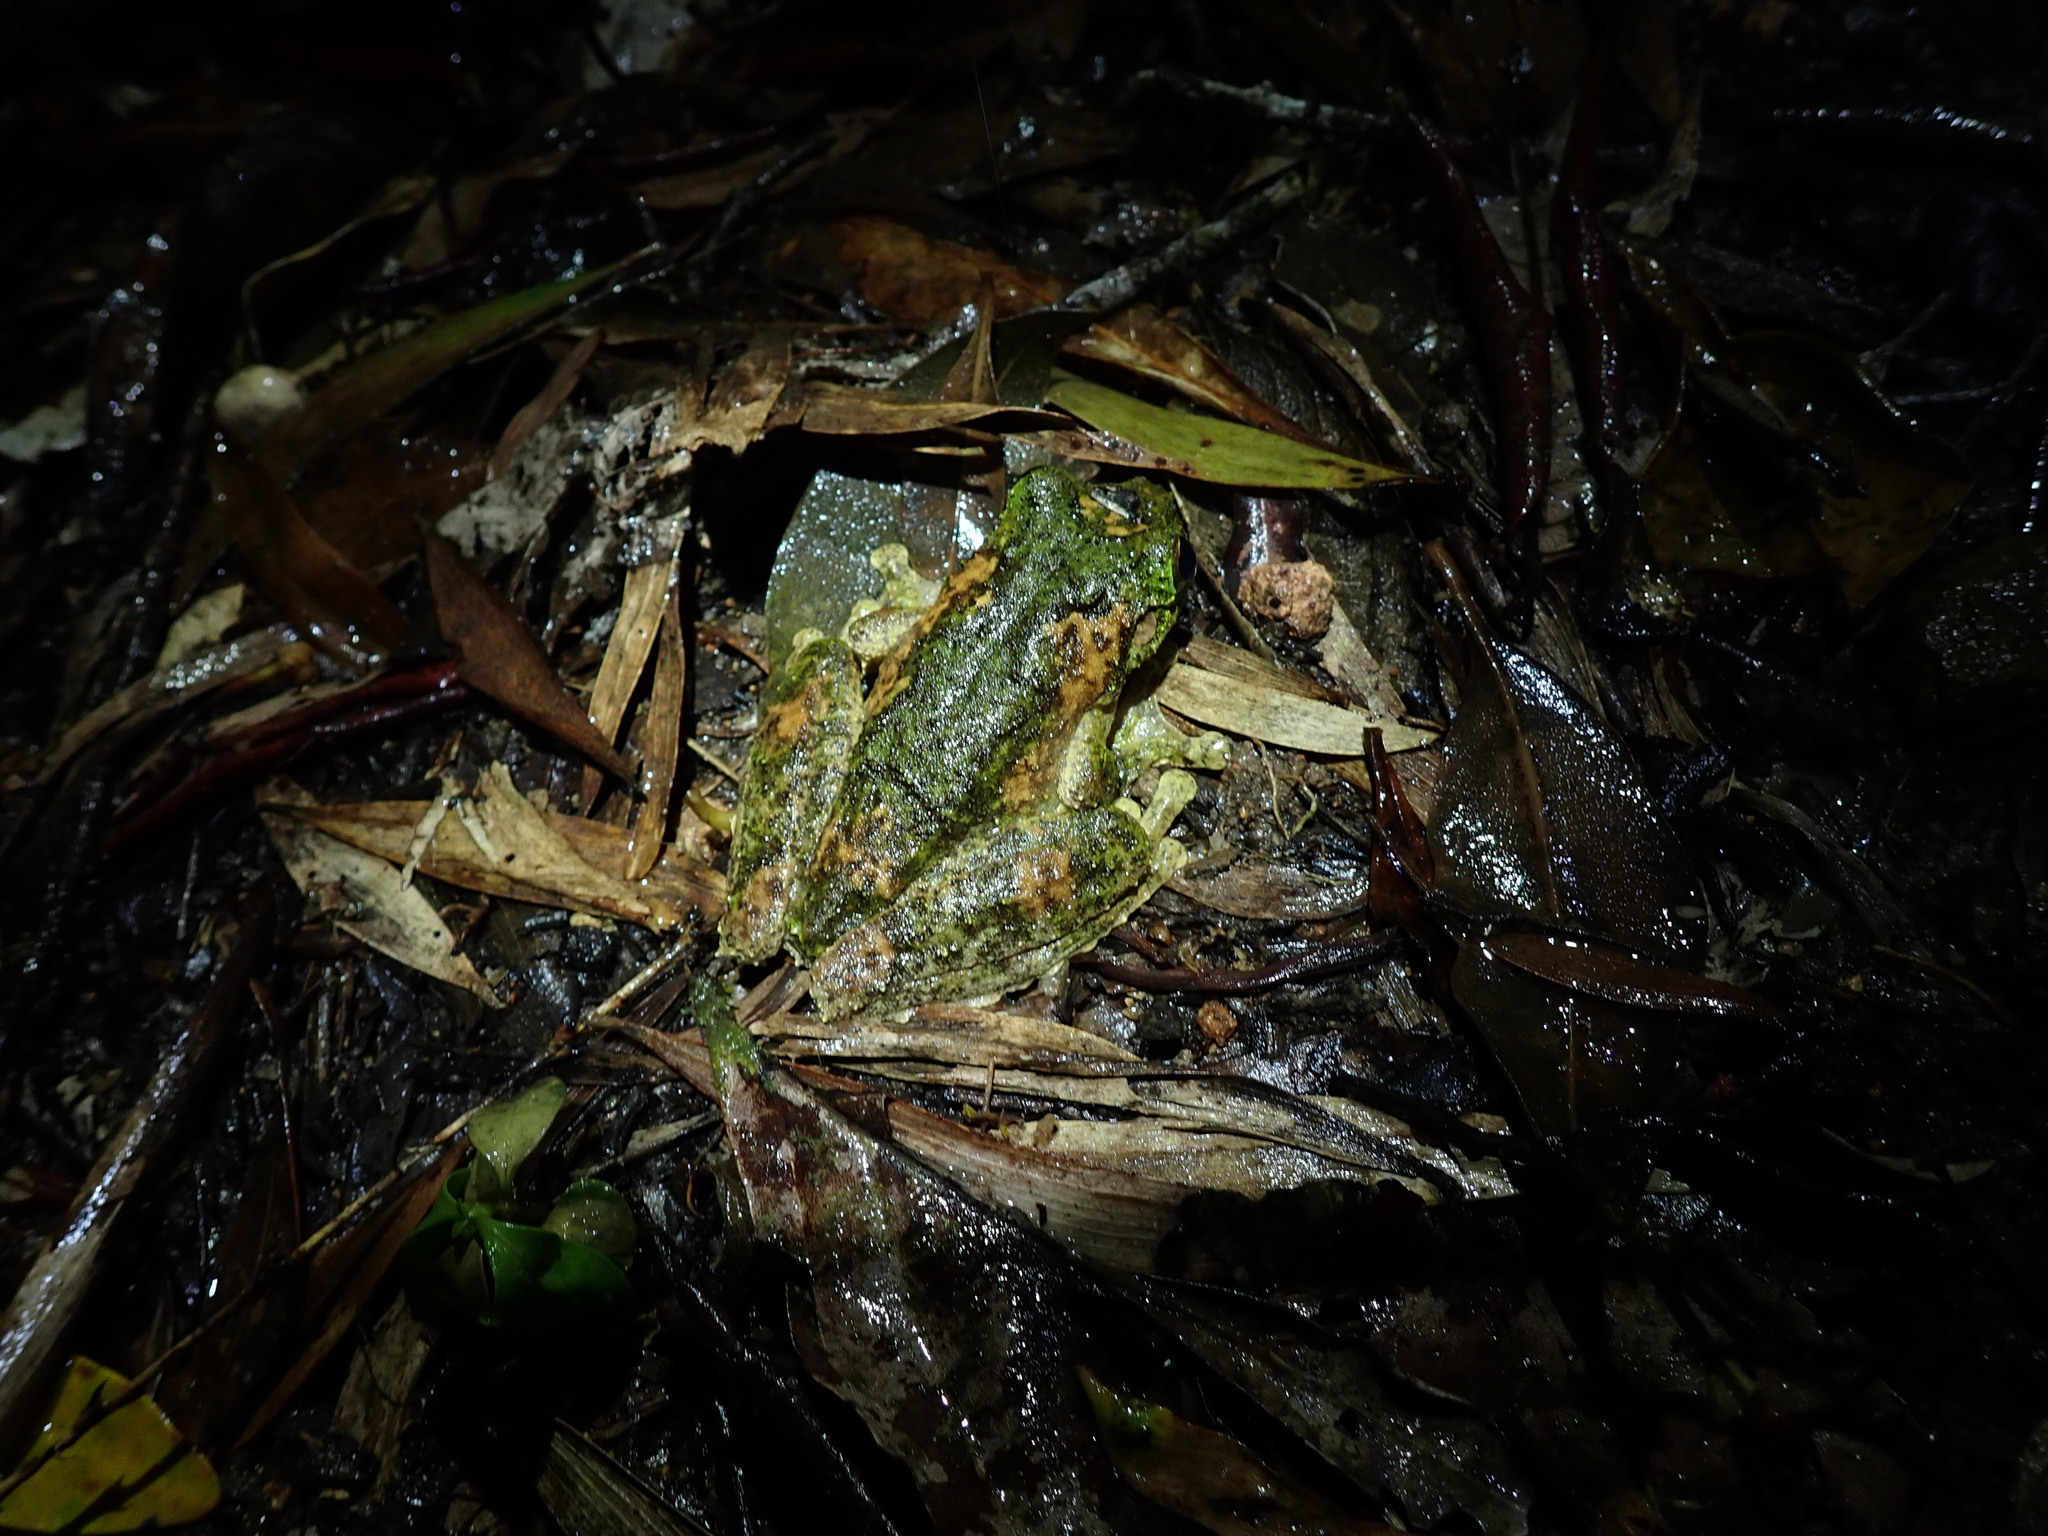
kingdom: Animalia
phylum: Chordata
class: Amphibia
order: Anura
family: Pelodryadidae
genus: Ranoidea
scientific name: Ranoidea serrata
